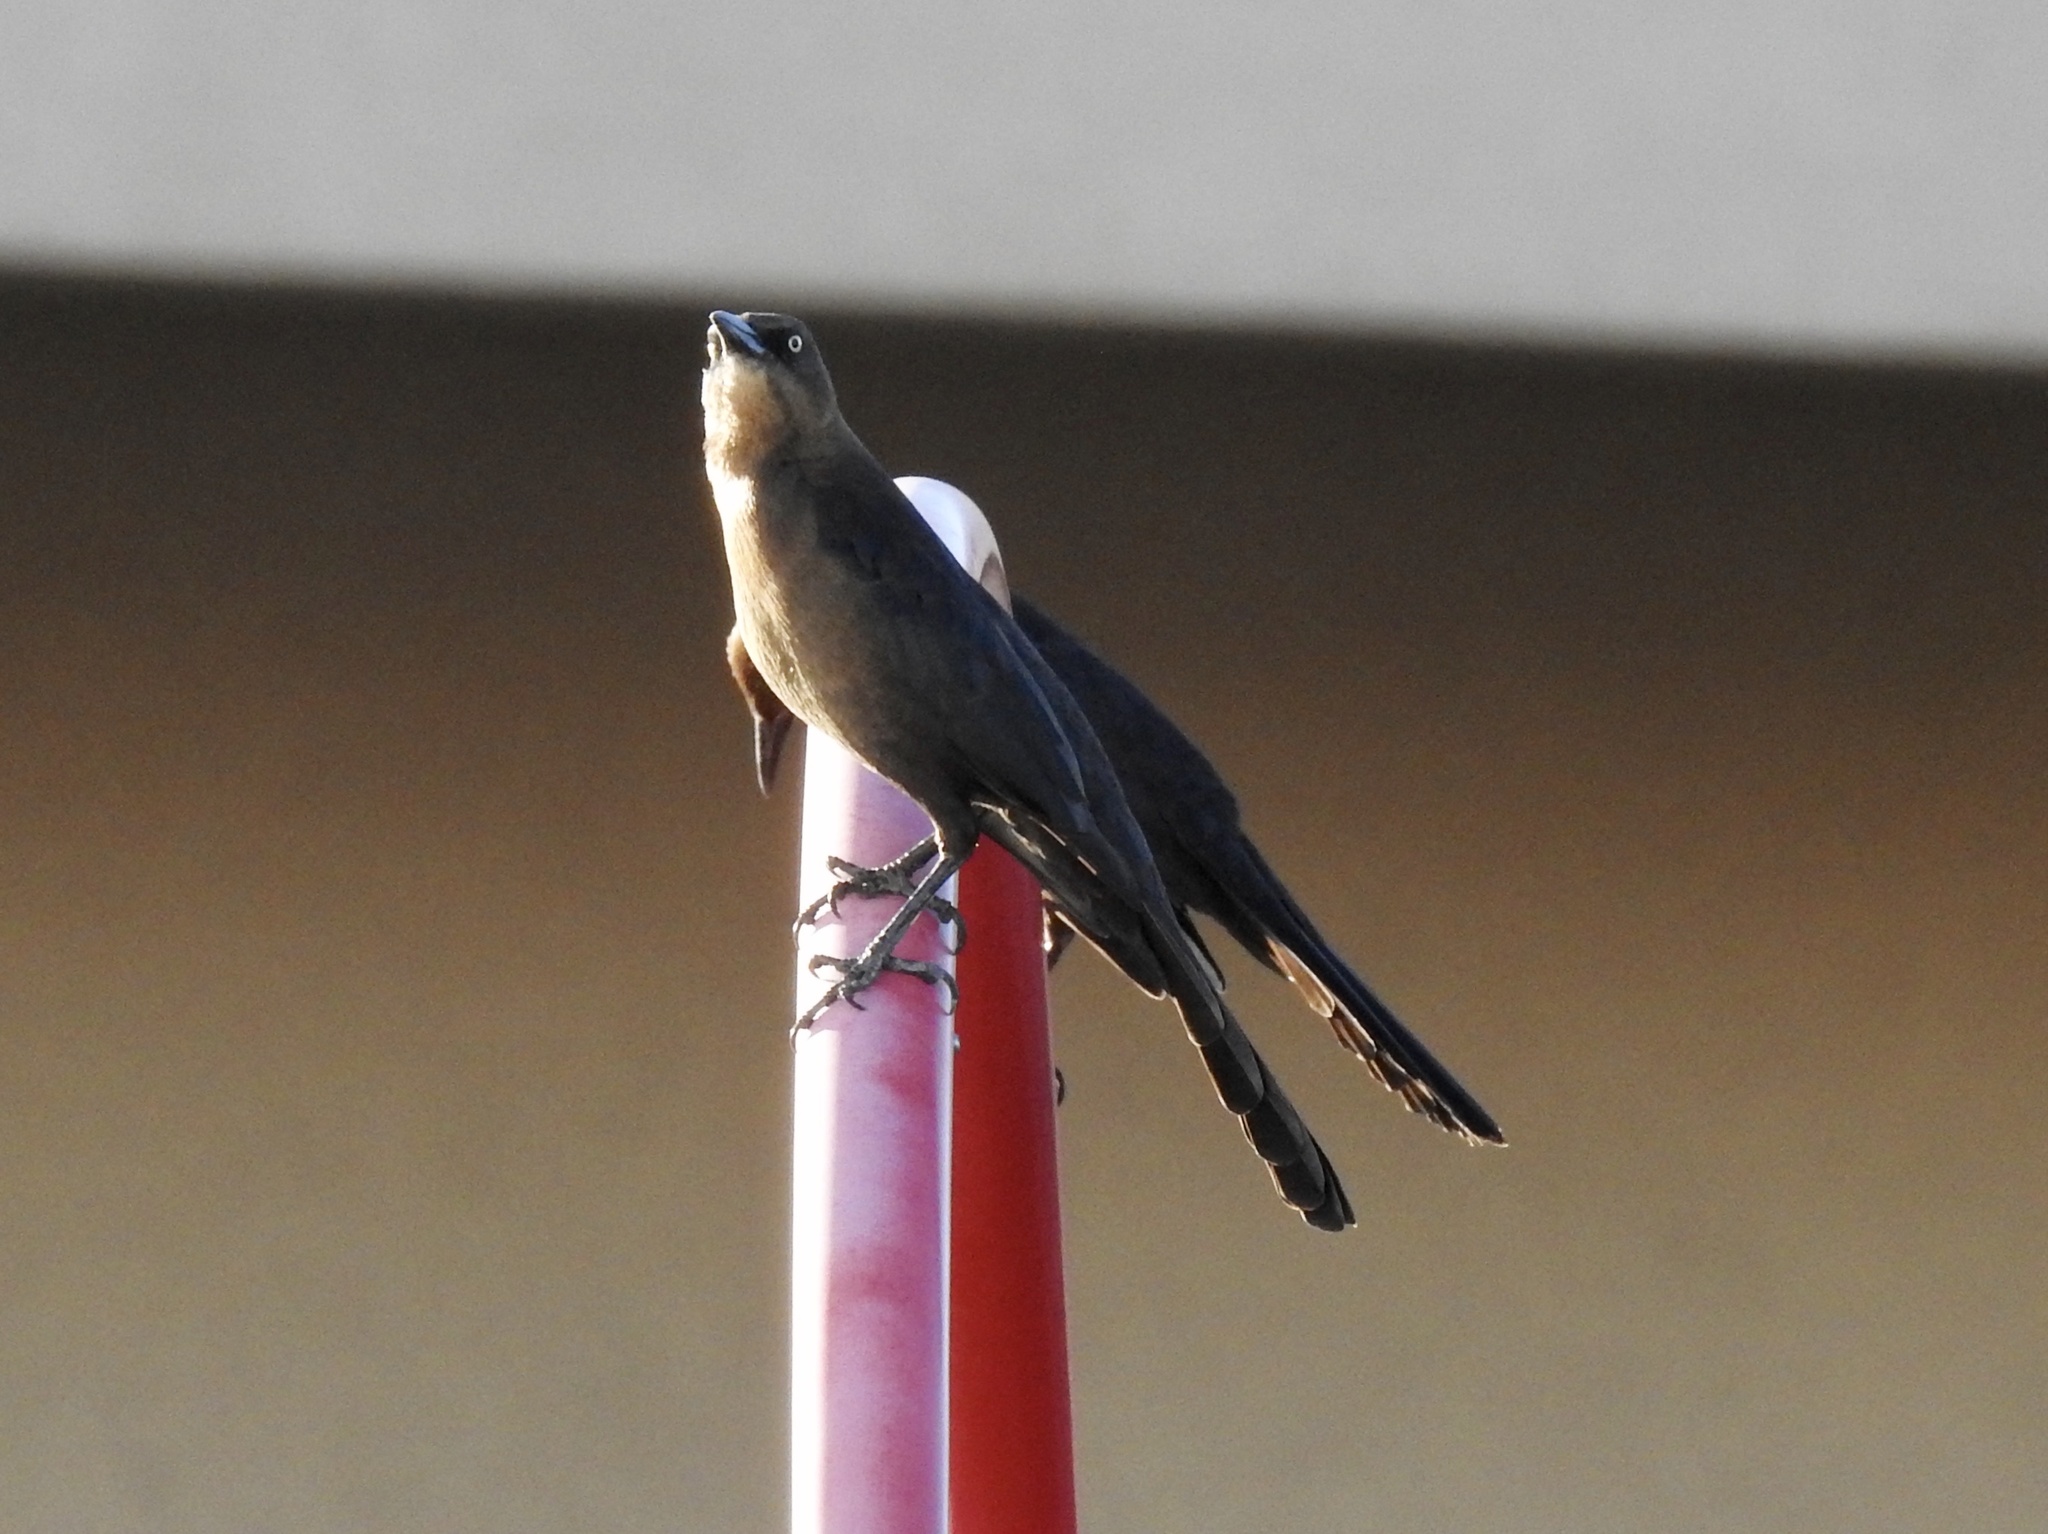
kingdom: Animalia
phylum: Chordata
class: Aves
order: Passeriformes
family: Icteridae
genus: Quiscalus
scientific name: Quiscalus mexicanus
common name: Great-tailed grackle
